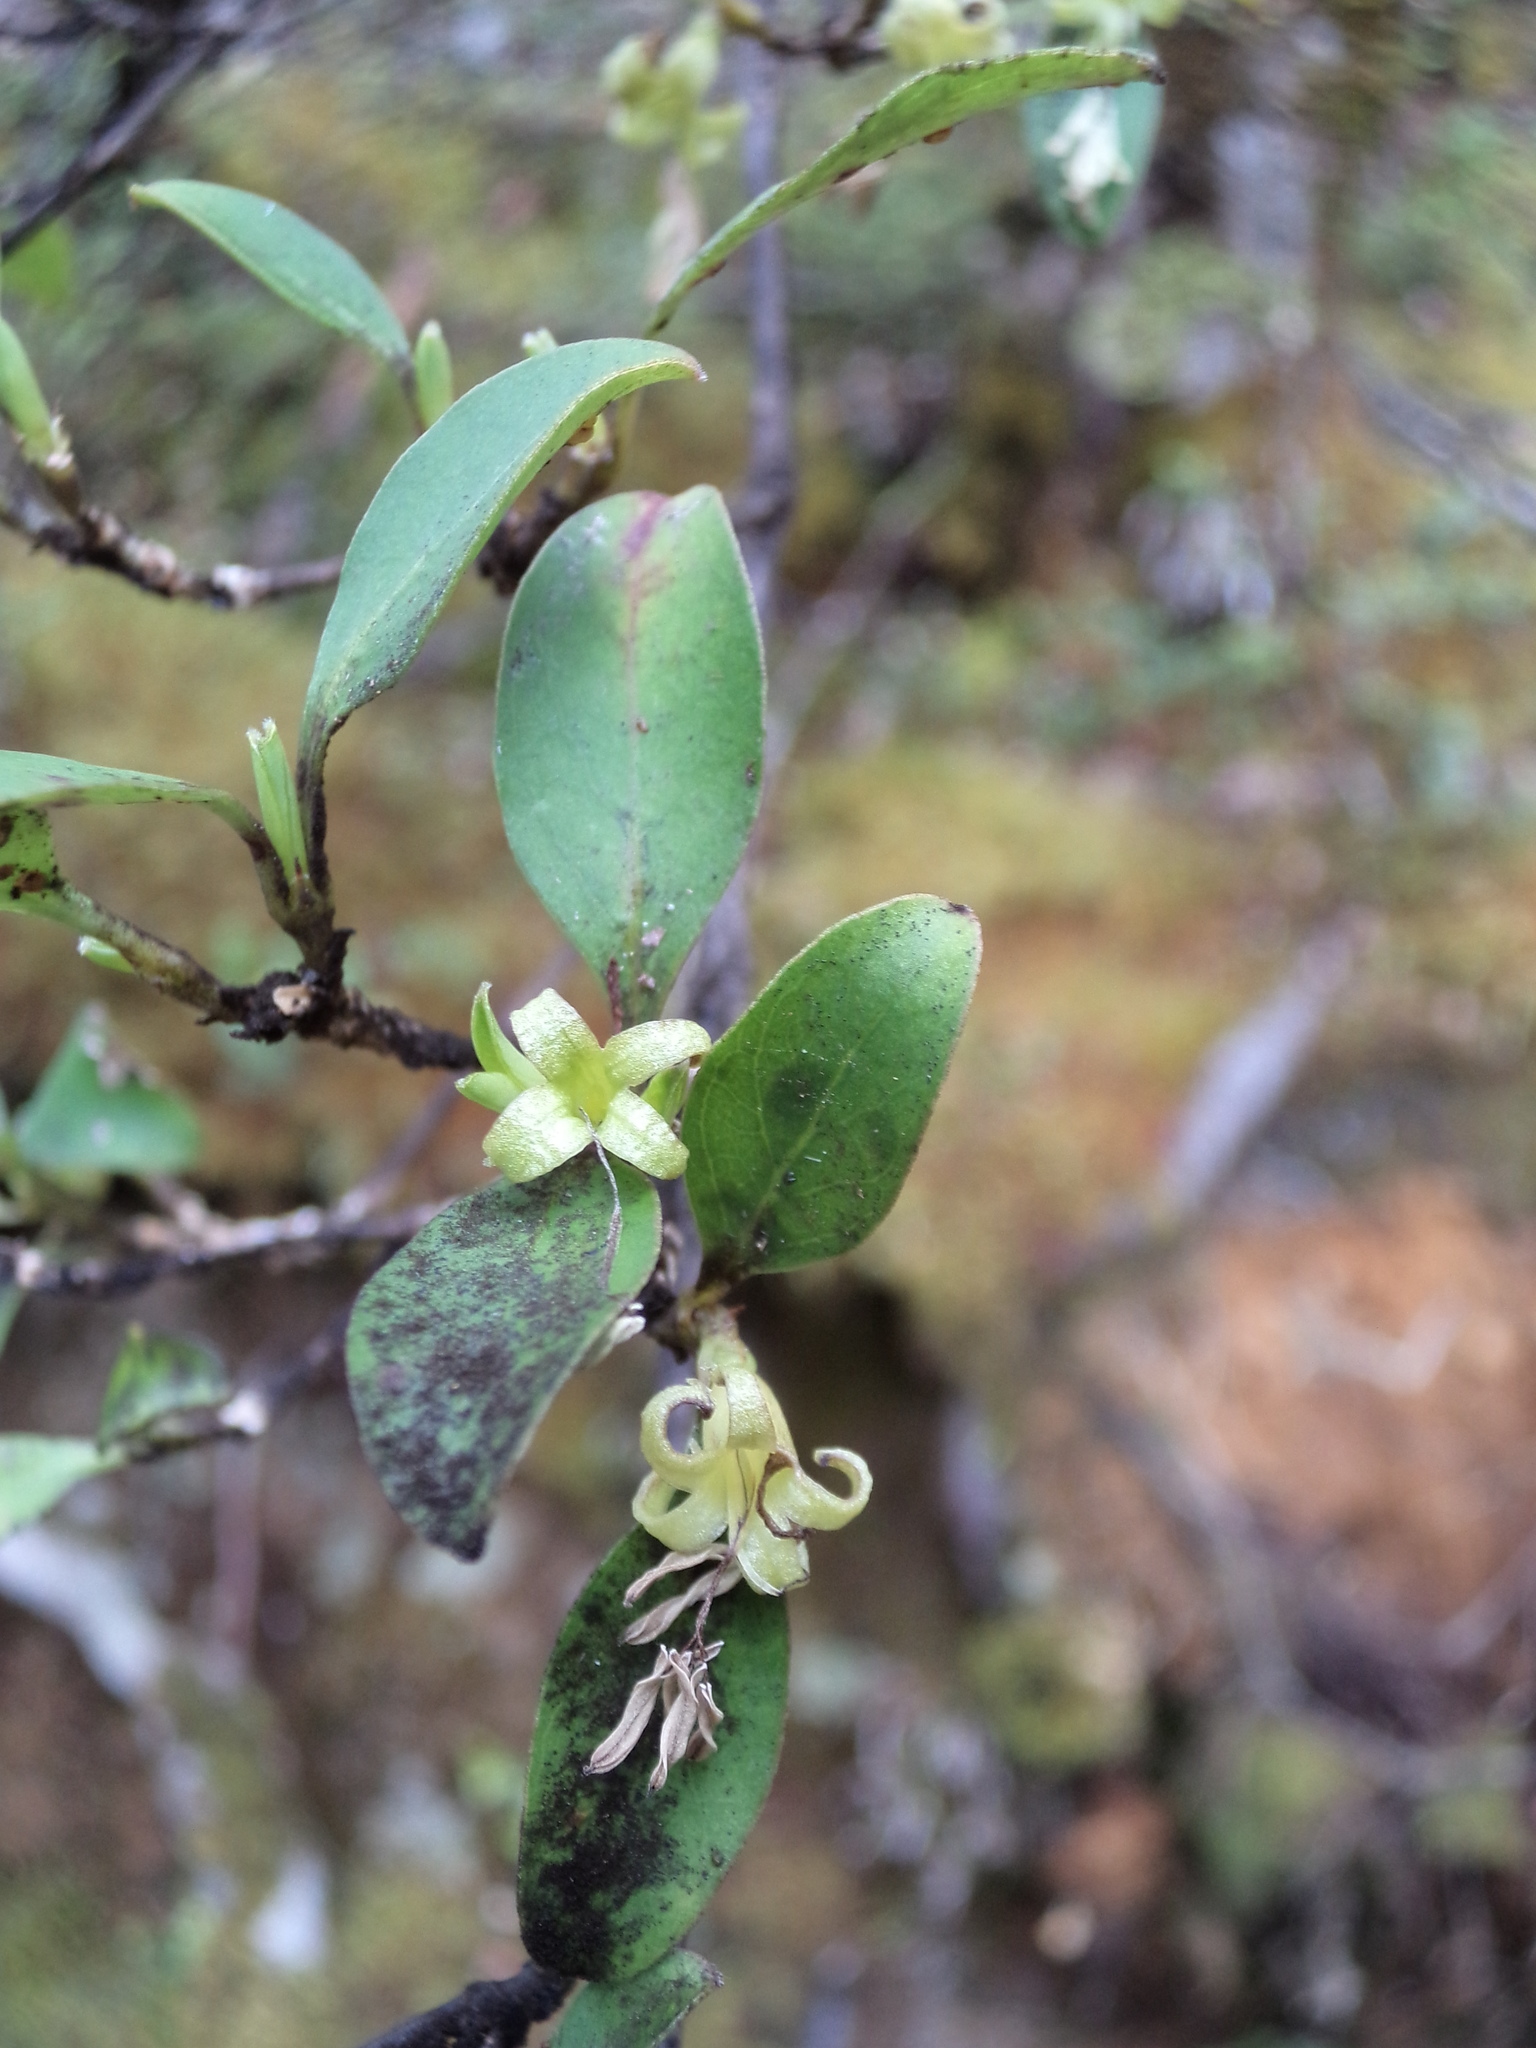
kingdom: Plantae
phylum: Tracheophyta
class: Magnoliopsida
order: Gentianales
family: Rubiaceae
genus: Coprosma
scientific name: Coprosma foetidissima
